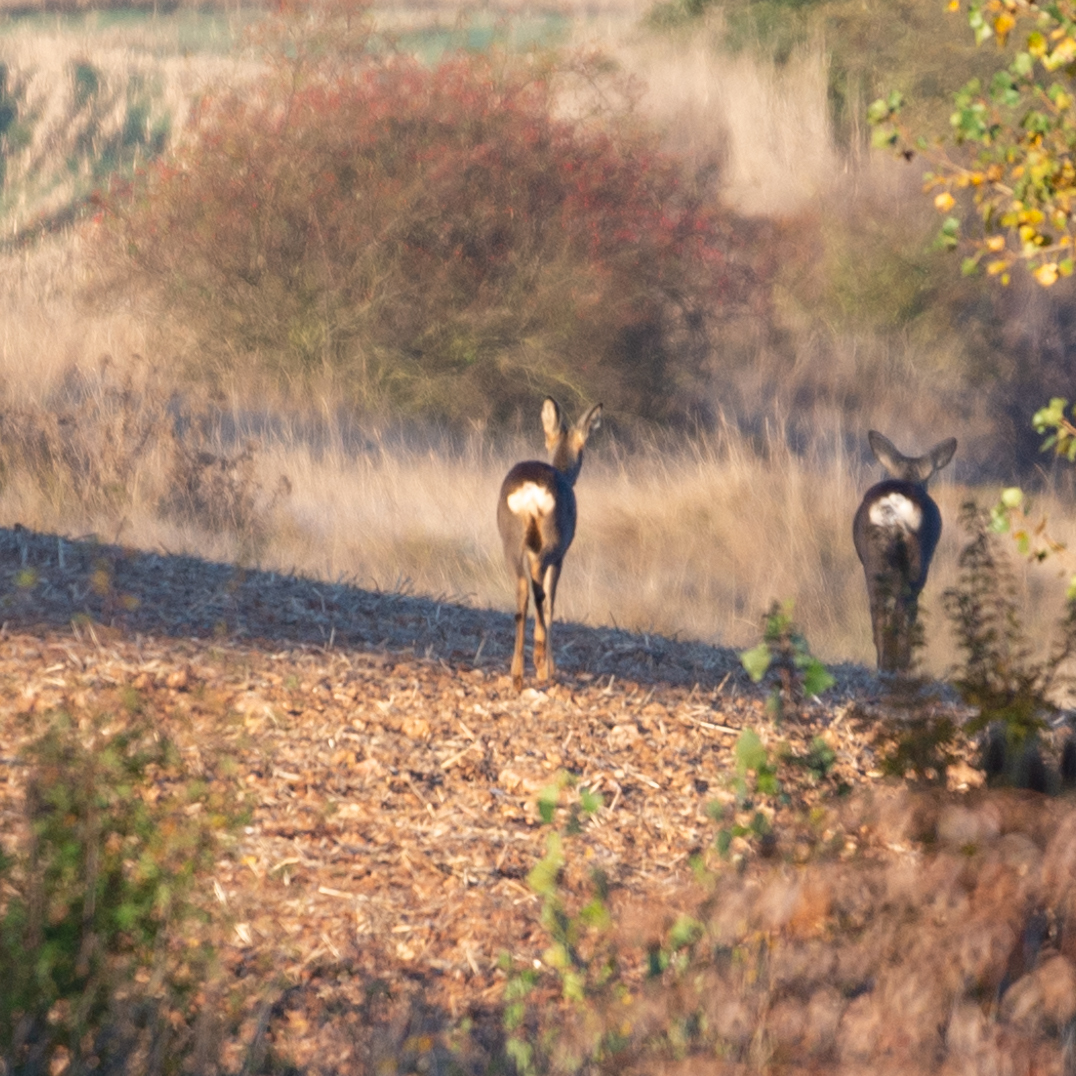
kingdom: Animalia
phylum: Chordata
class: Mammalia
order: Artiodactyla
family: Cervidae
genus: Capreolus
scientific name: Capreolus capreolus
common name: Western roe deer
